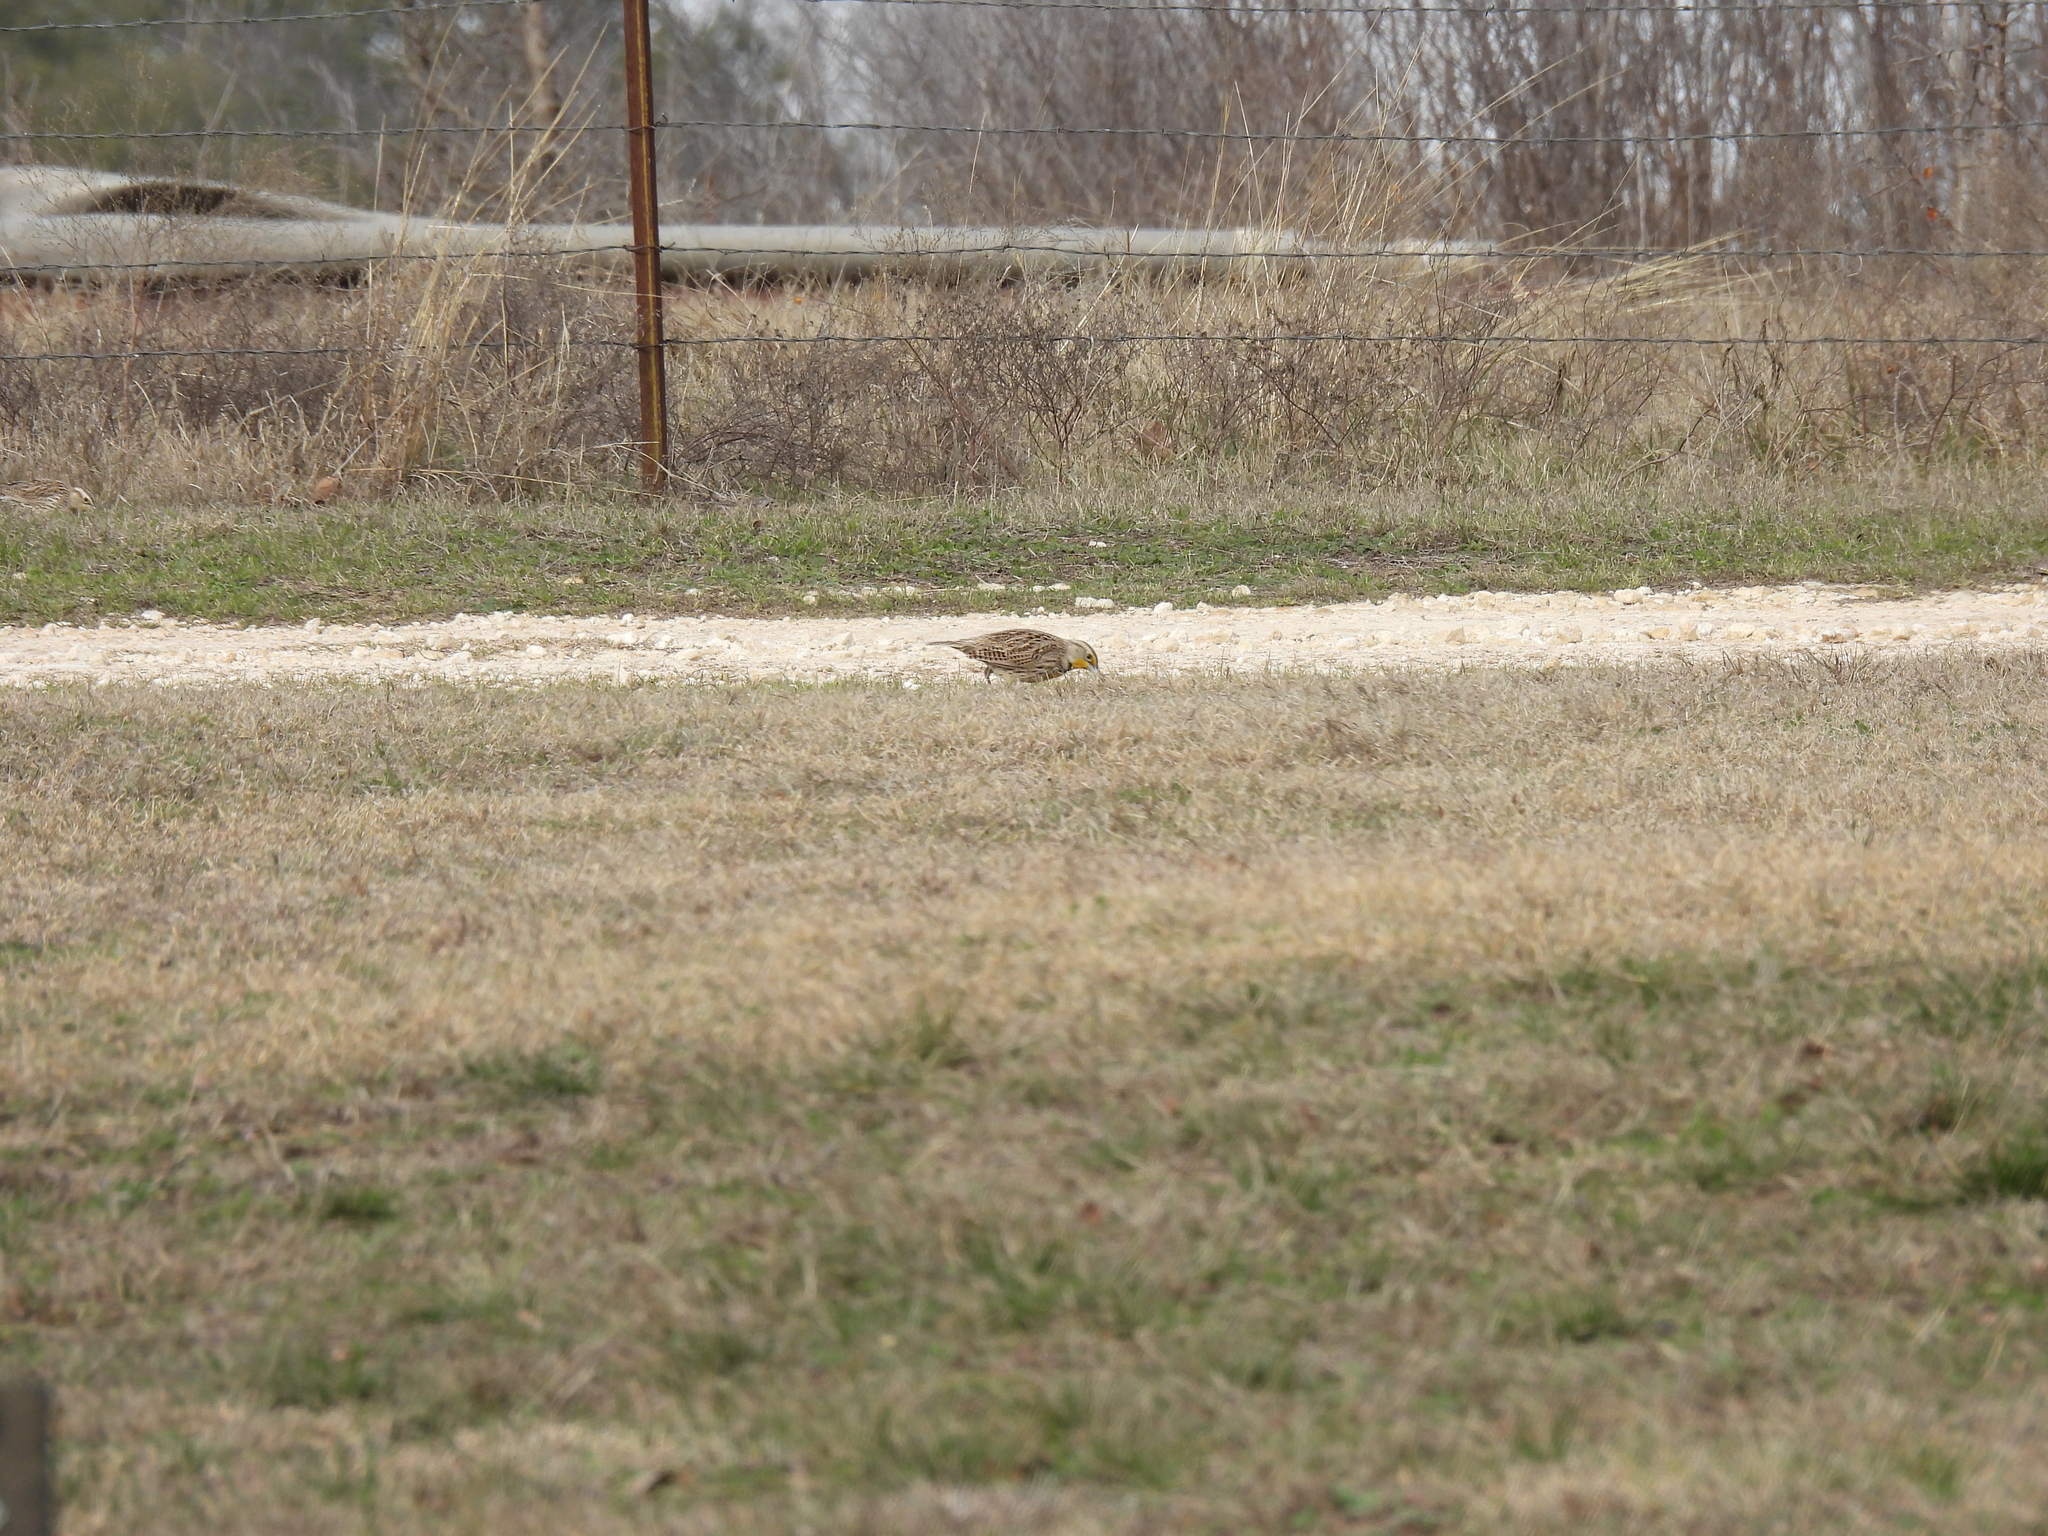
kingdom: Animalia
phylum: Chordata
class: Aves
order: Passeriformes
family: Icteridae
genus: Sturnella
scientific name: Sturnella neglecta
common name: Western meadowlark
